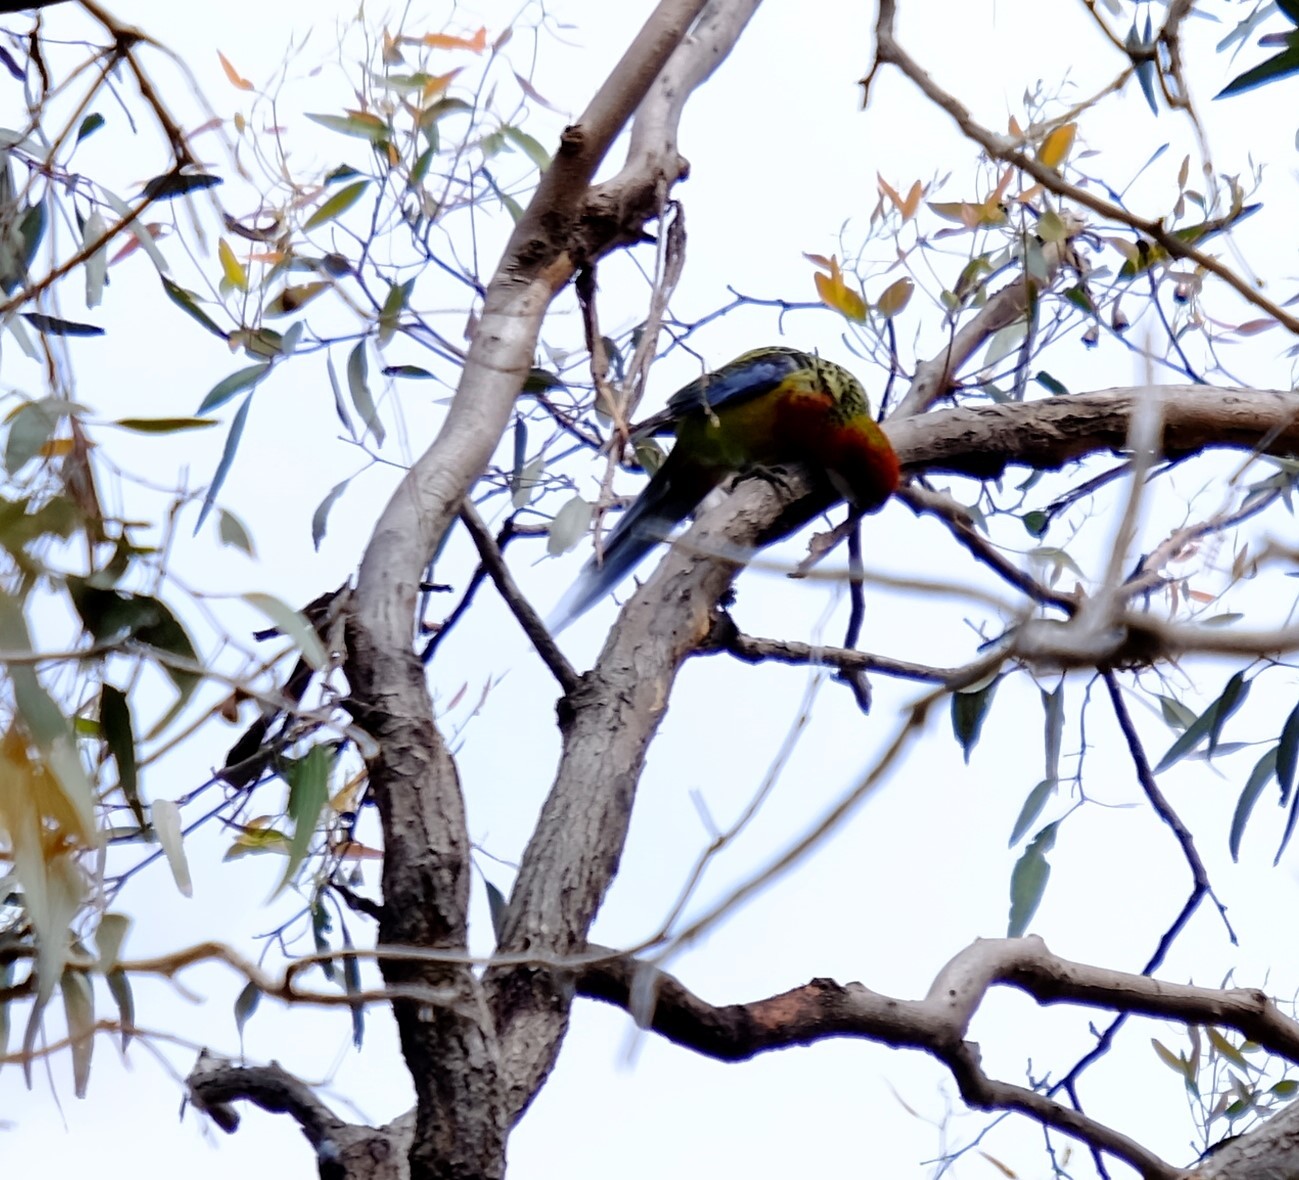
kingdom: Animalia
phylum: Chordata
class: Aves
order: Psittaciformes
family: Psittacidae
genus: Platycercus
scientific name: Platycercus eximius
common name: Eastern rosella
